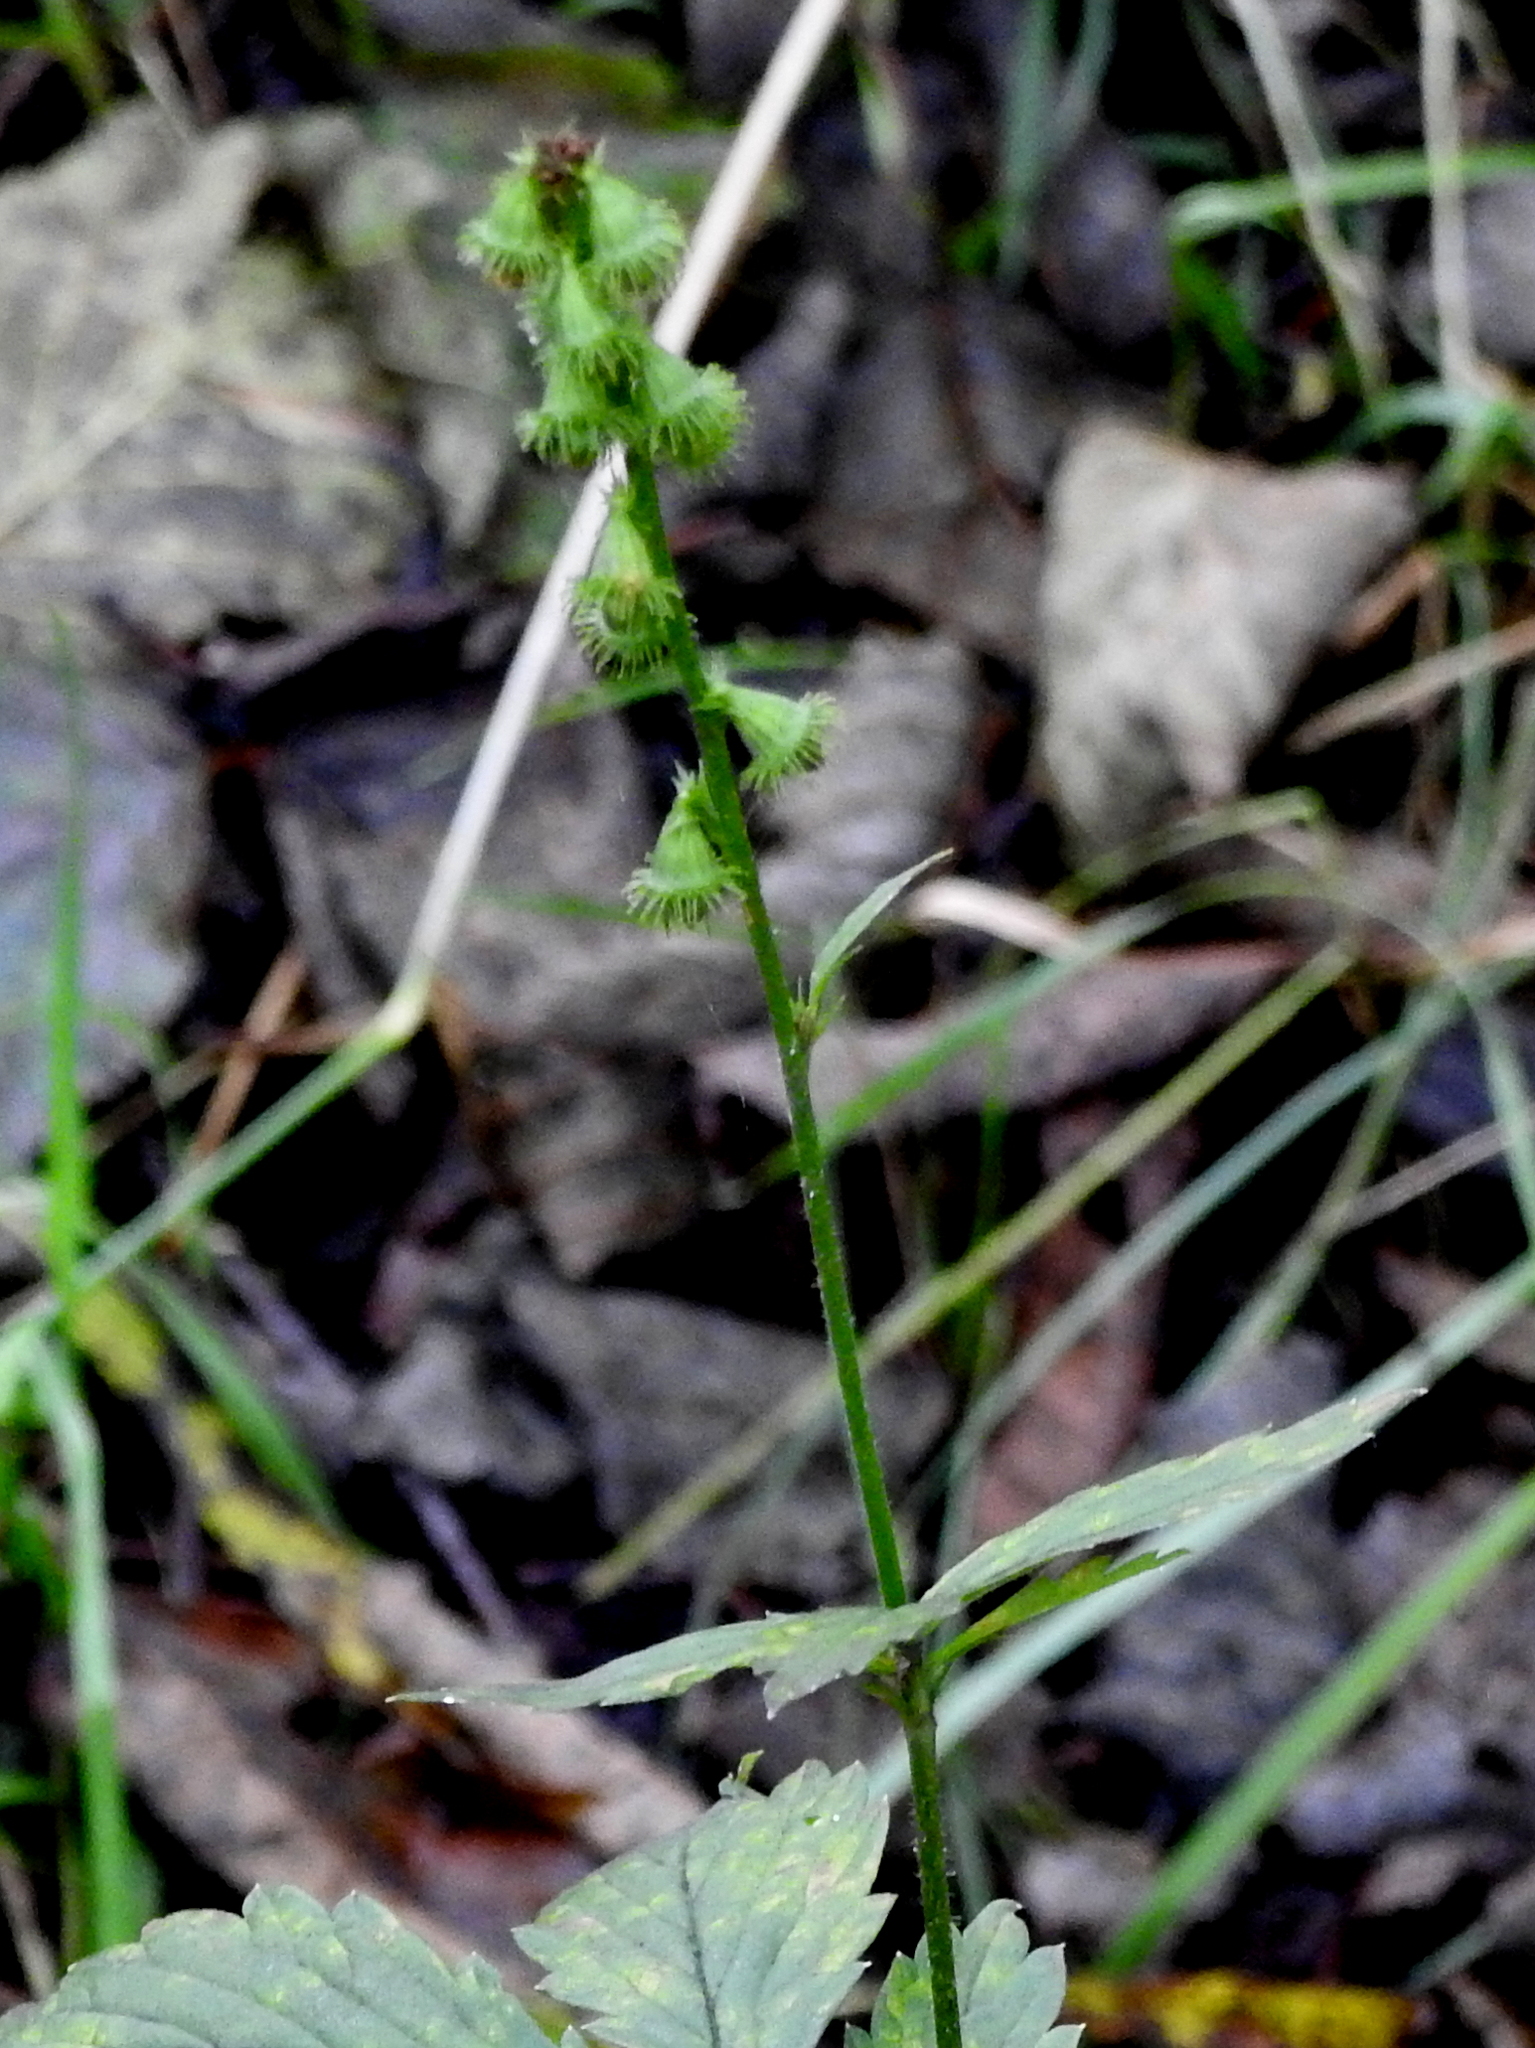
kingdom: Plantae
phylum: Tracheophyta
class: Magnoliopsida
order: Rosales
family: Rosaceae
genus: Agrimonia
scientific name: Agrimonia pilosa
